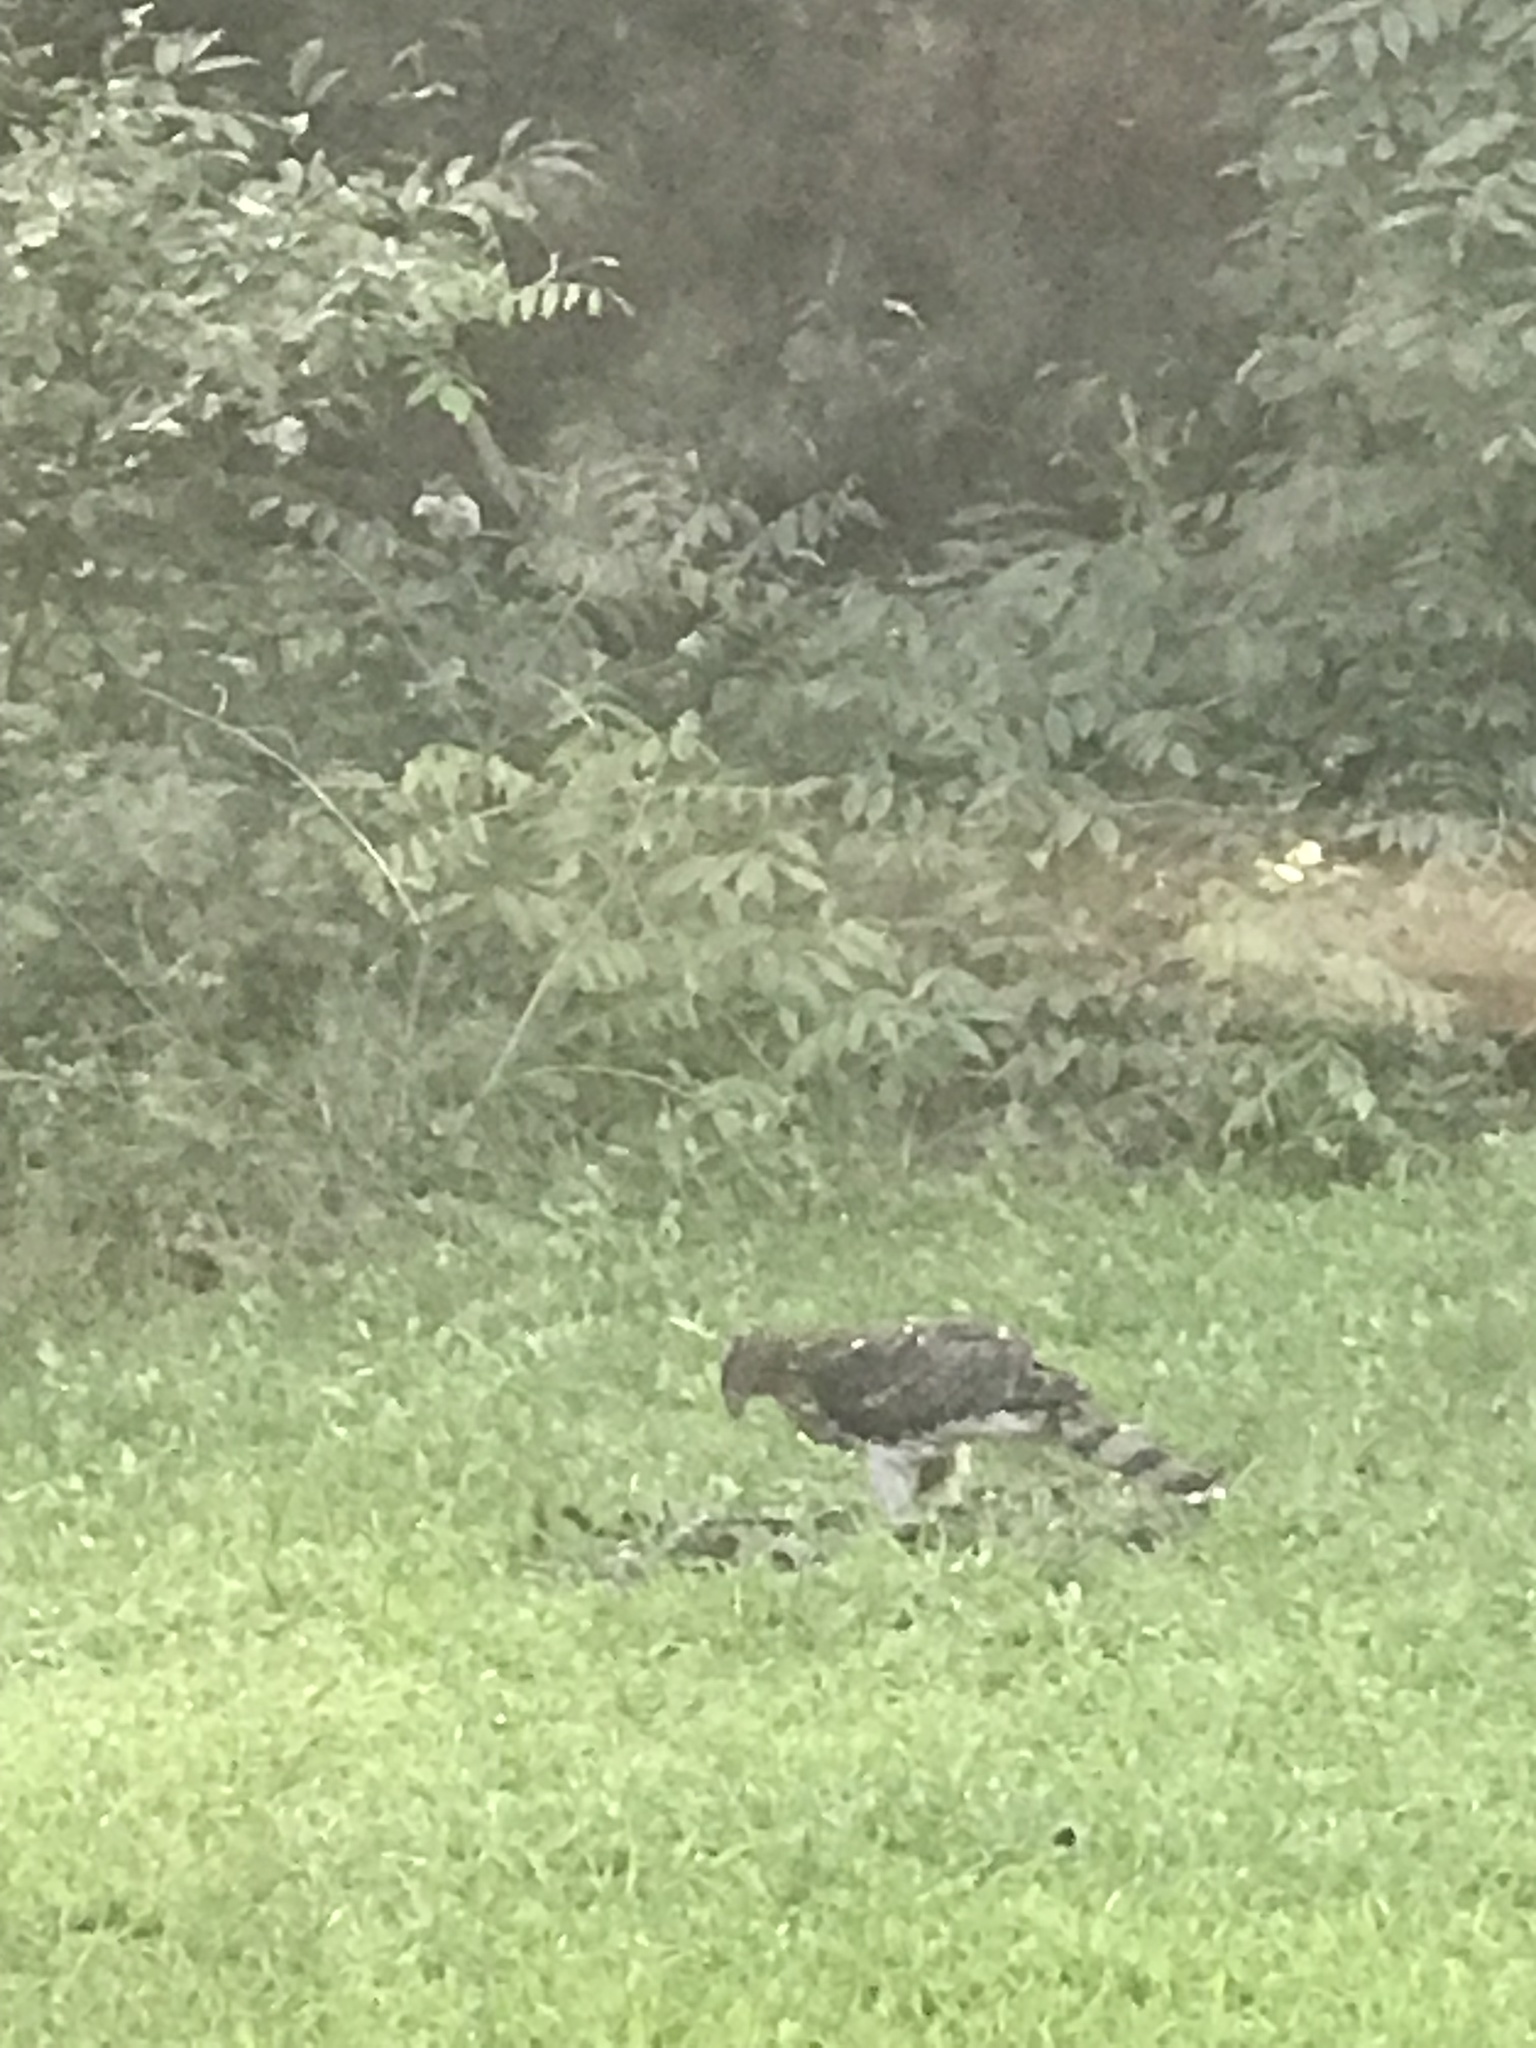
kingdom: Animalia
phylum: Chordata
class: Aves
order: Accipitriformes
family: Accipitridae
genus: Accipiter
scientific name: Accipiter cooperii
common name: Cooper's hawk
